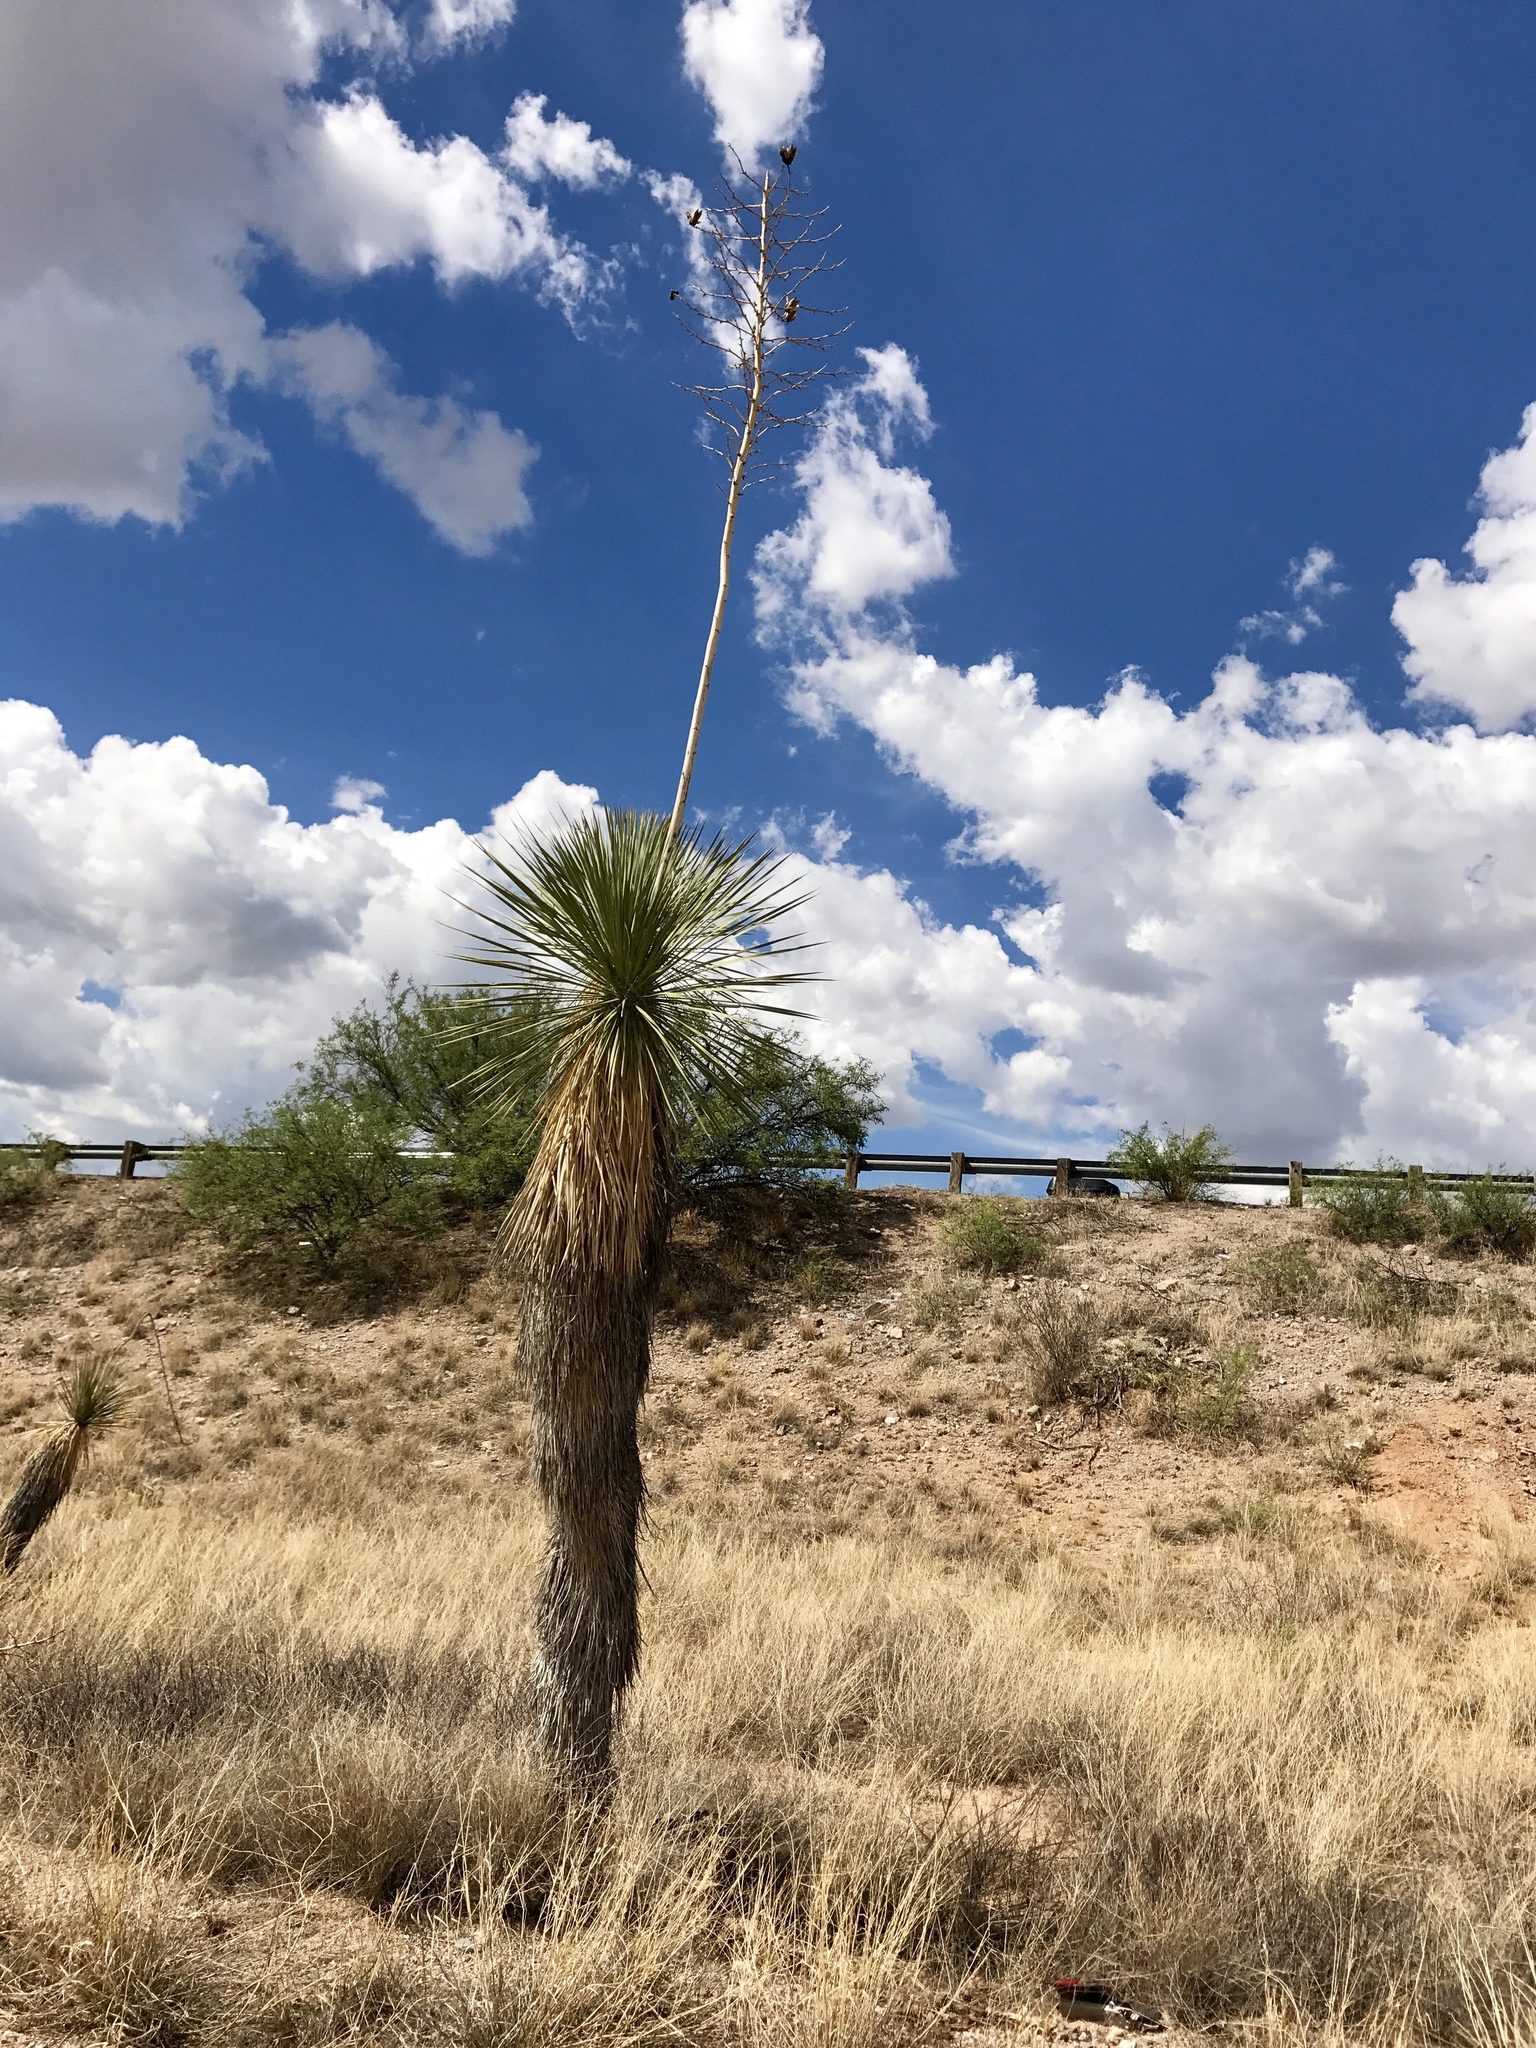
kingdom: Plantae
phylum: Tracheophyta
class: Liliopsida
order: Asparagales
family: Asparagaceae
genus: Yucca
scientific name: Yucca elata
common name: Palmella
